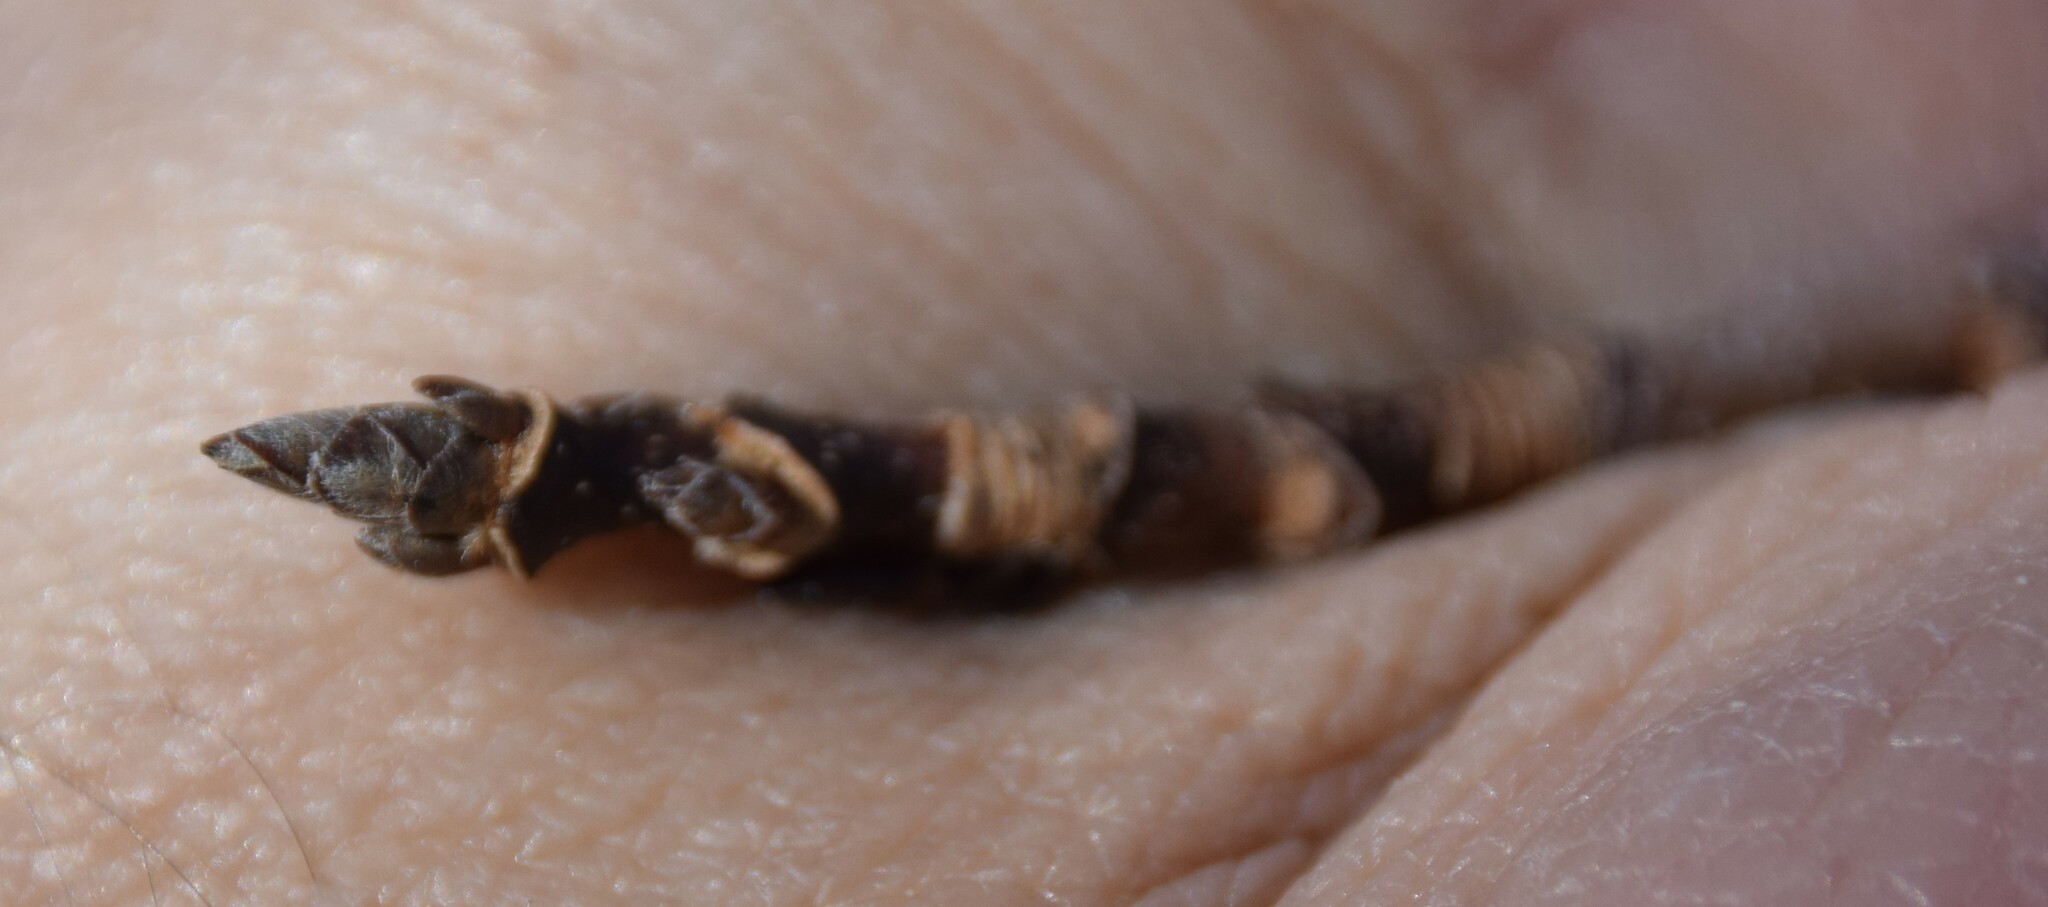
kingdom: Plantae
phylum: Tracheophyta
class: Magnoliopsida
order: Sapindales
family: Sapindaceae
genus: Acer
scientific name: Acer saccharum
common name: Sugar maple
